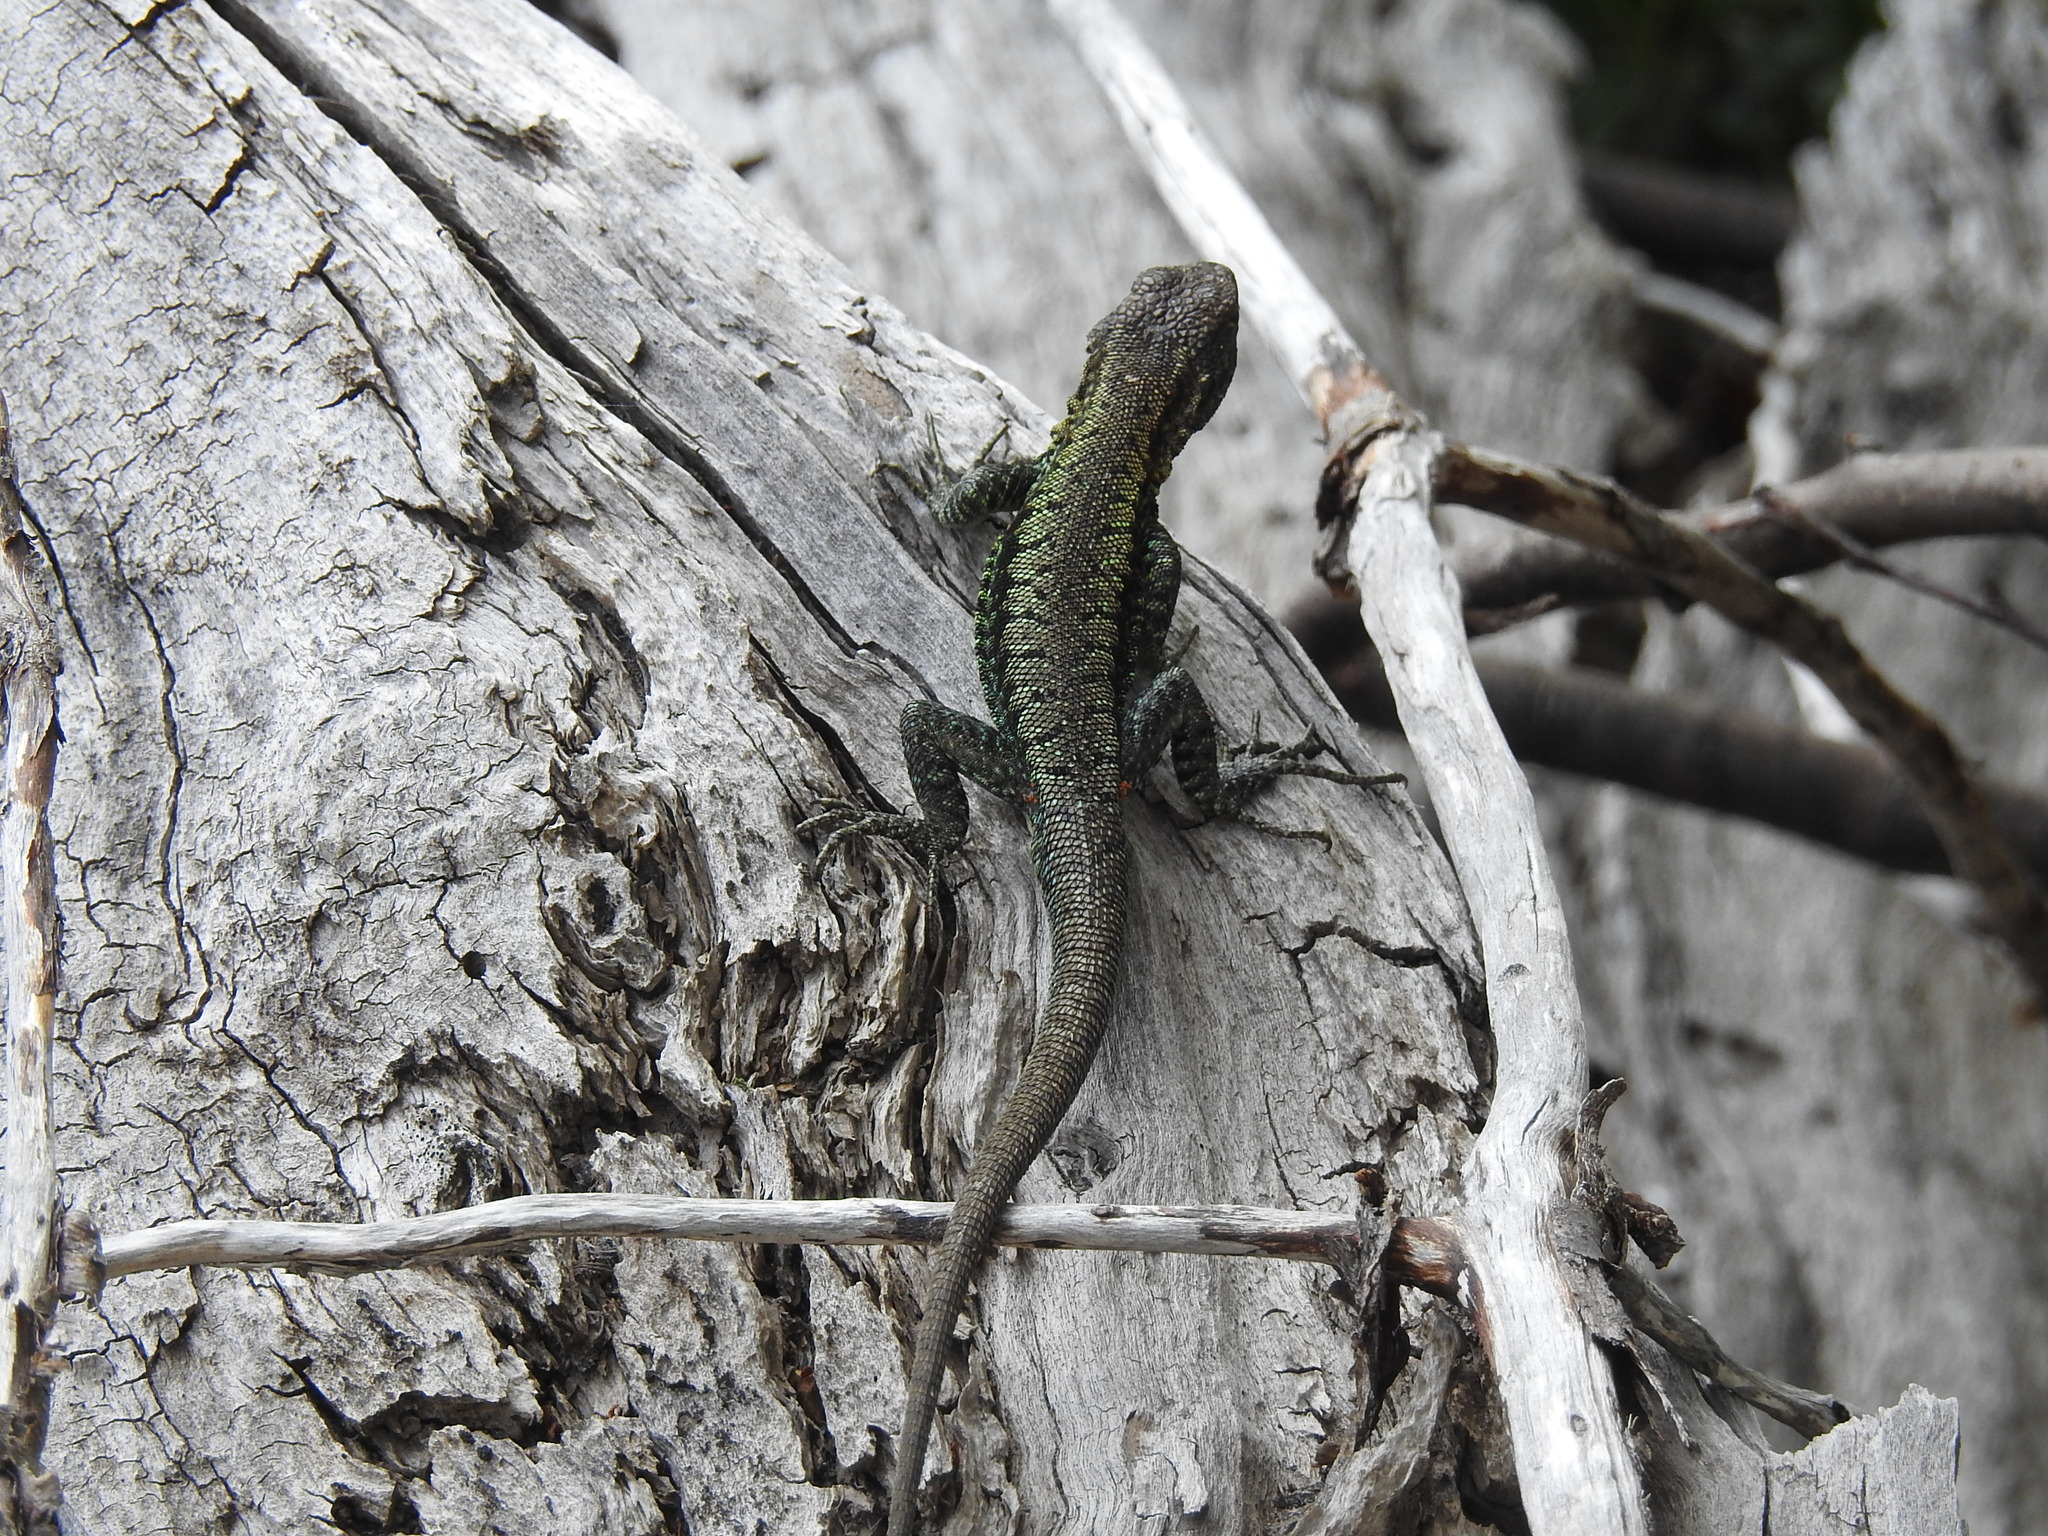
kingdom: Animalia
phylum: Chordata
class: Squamata
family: Liolaemidae
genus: Liolaemus
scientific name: Liolaemus pictus
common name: Painted tree iguana
